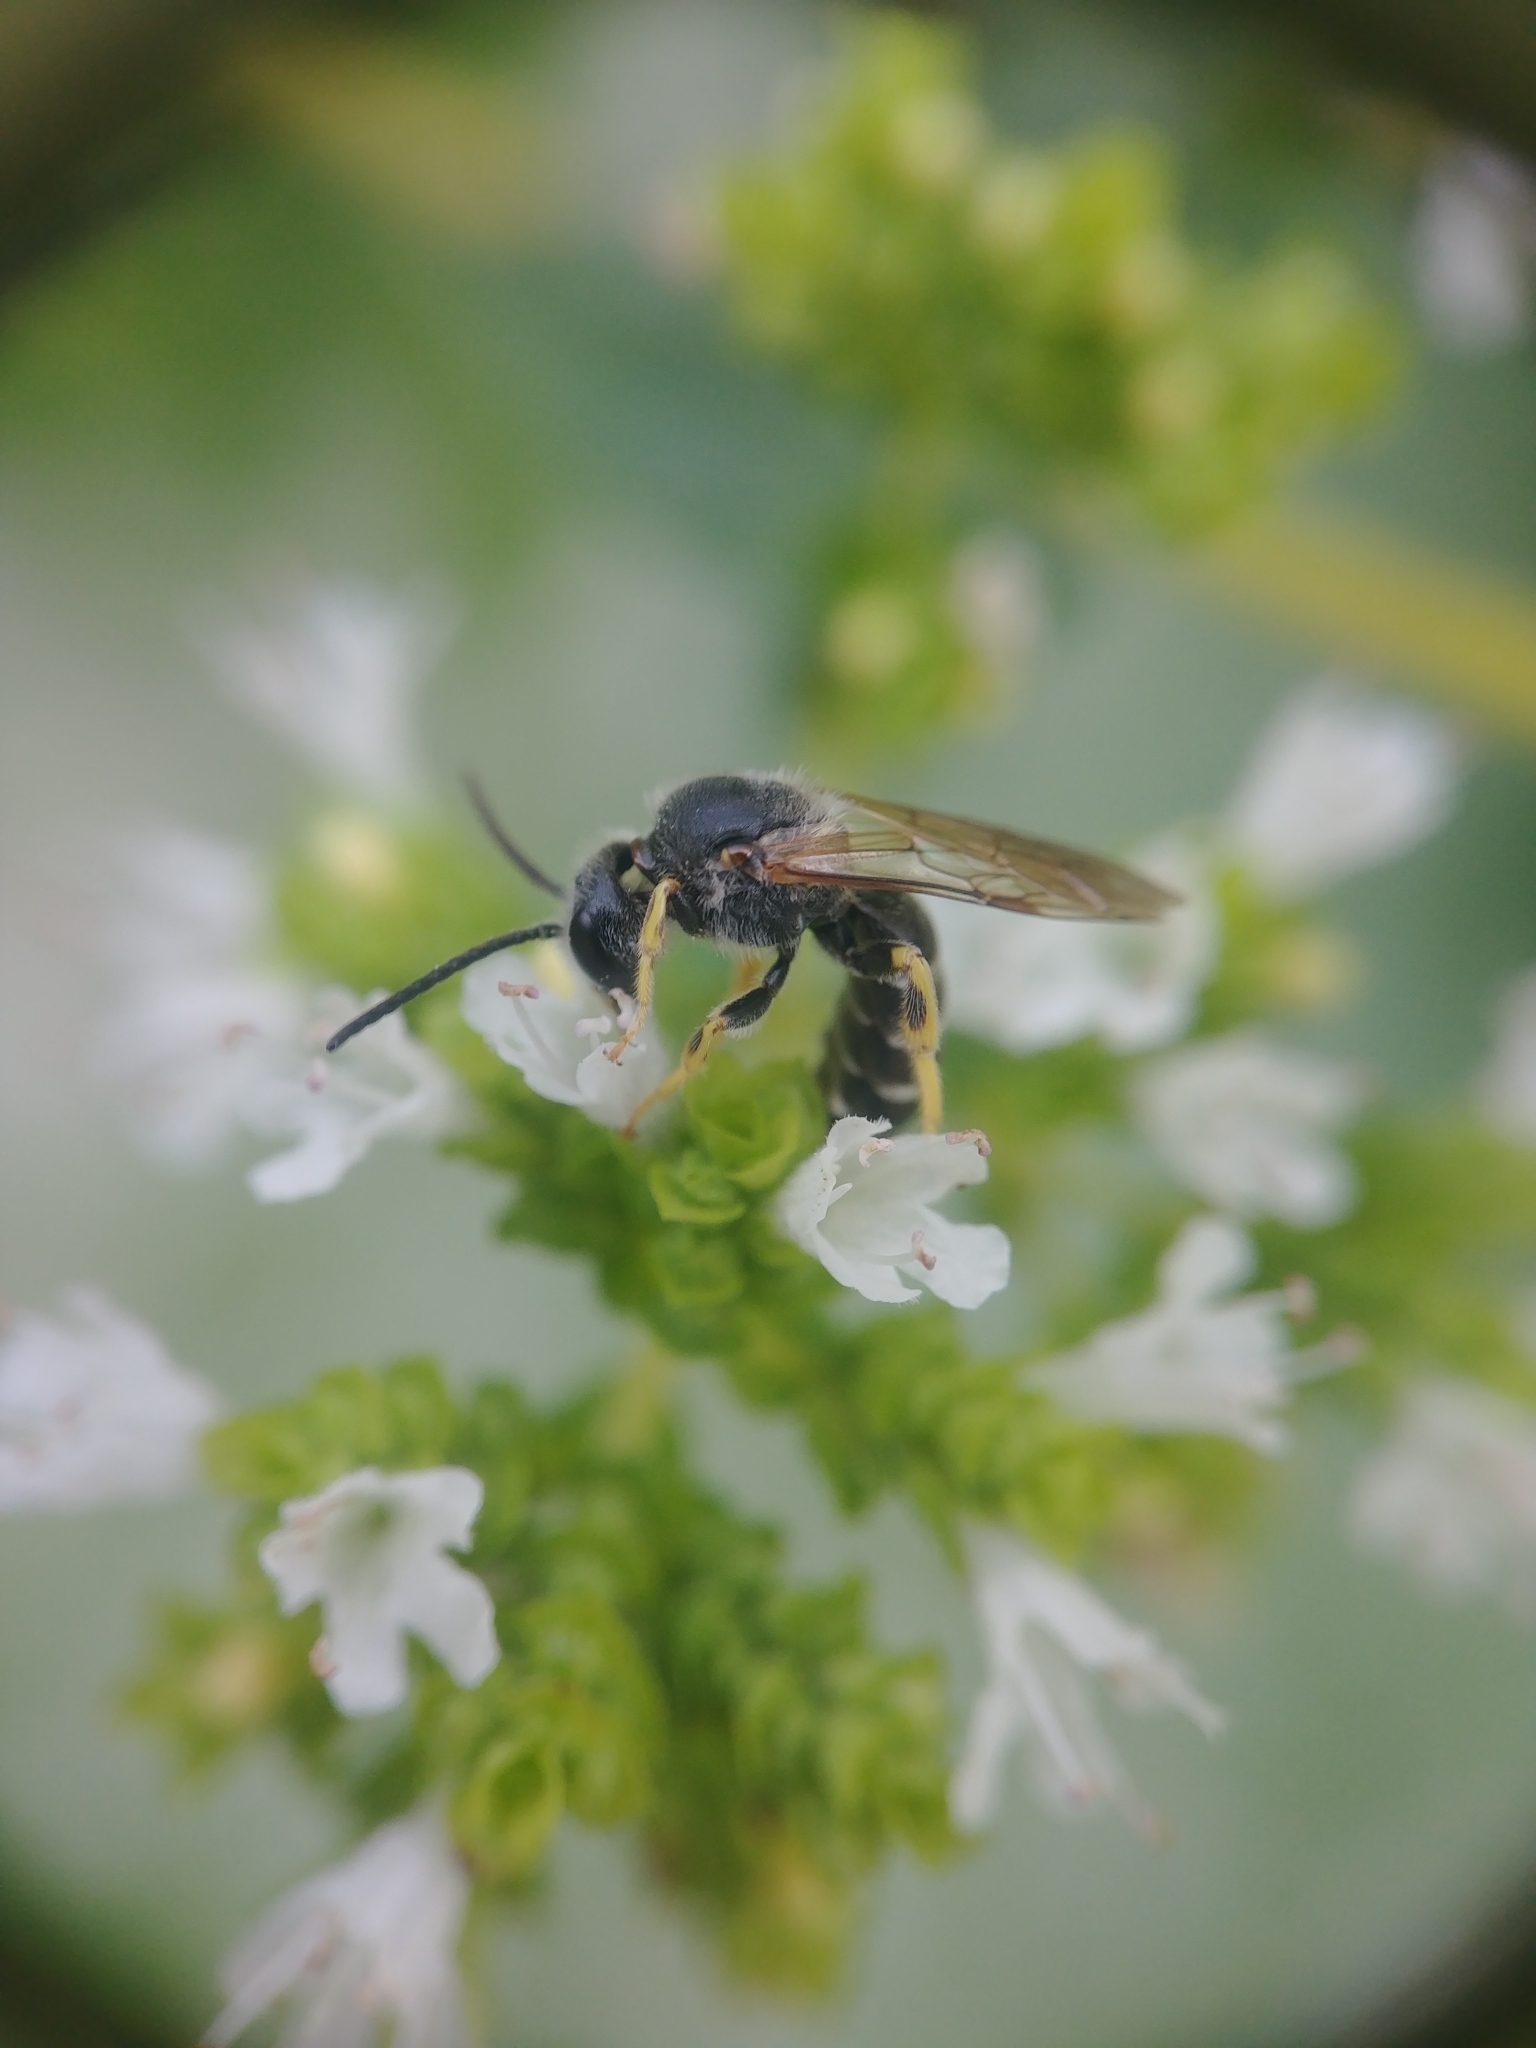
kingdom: Animalia
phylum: Arthropoda
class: Insecta
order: Hymenoptera
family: Halictidae
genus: Halictus
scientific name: Halictus rubicundus
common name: Orange-legged furrow bee
